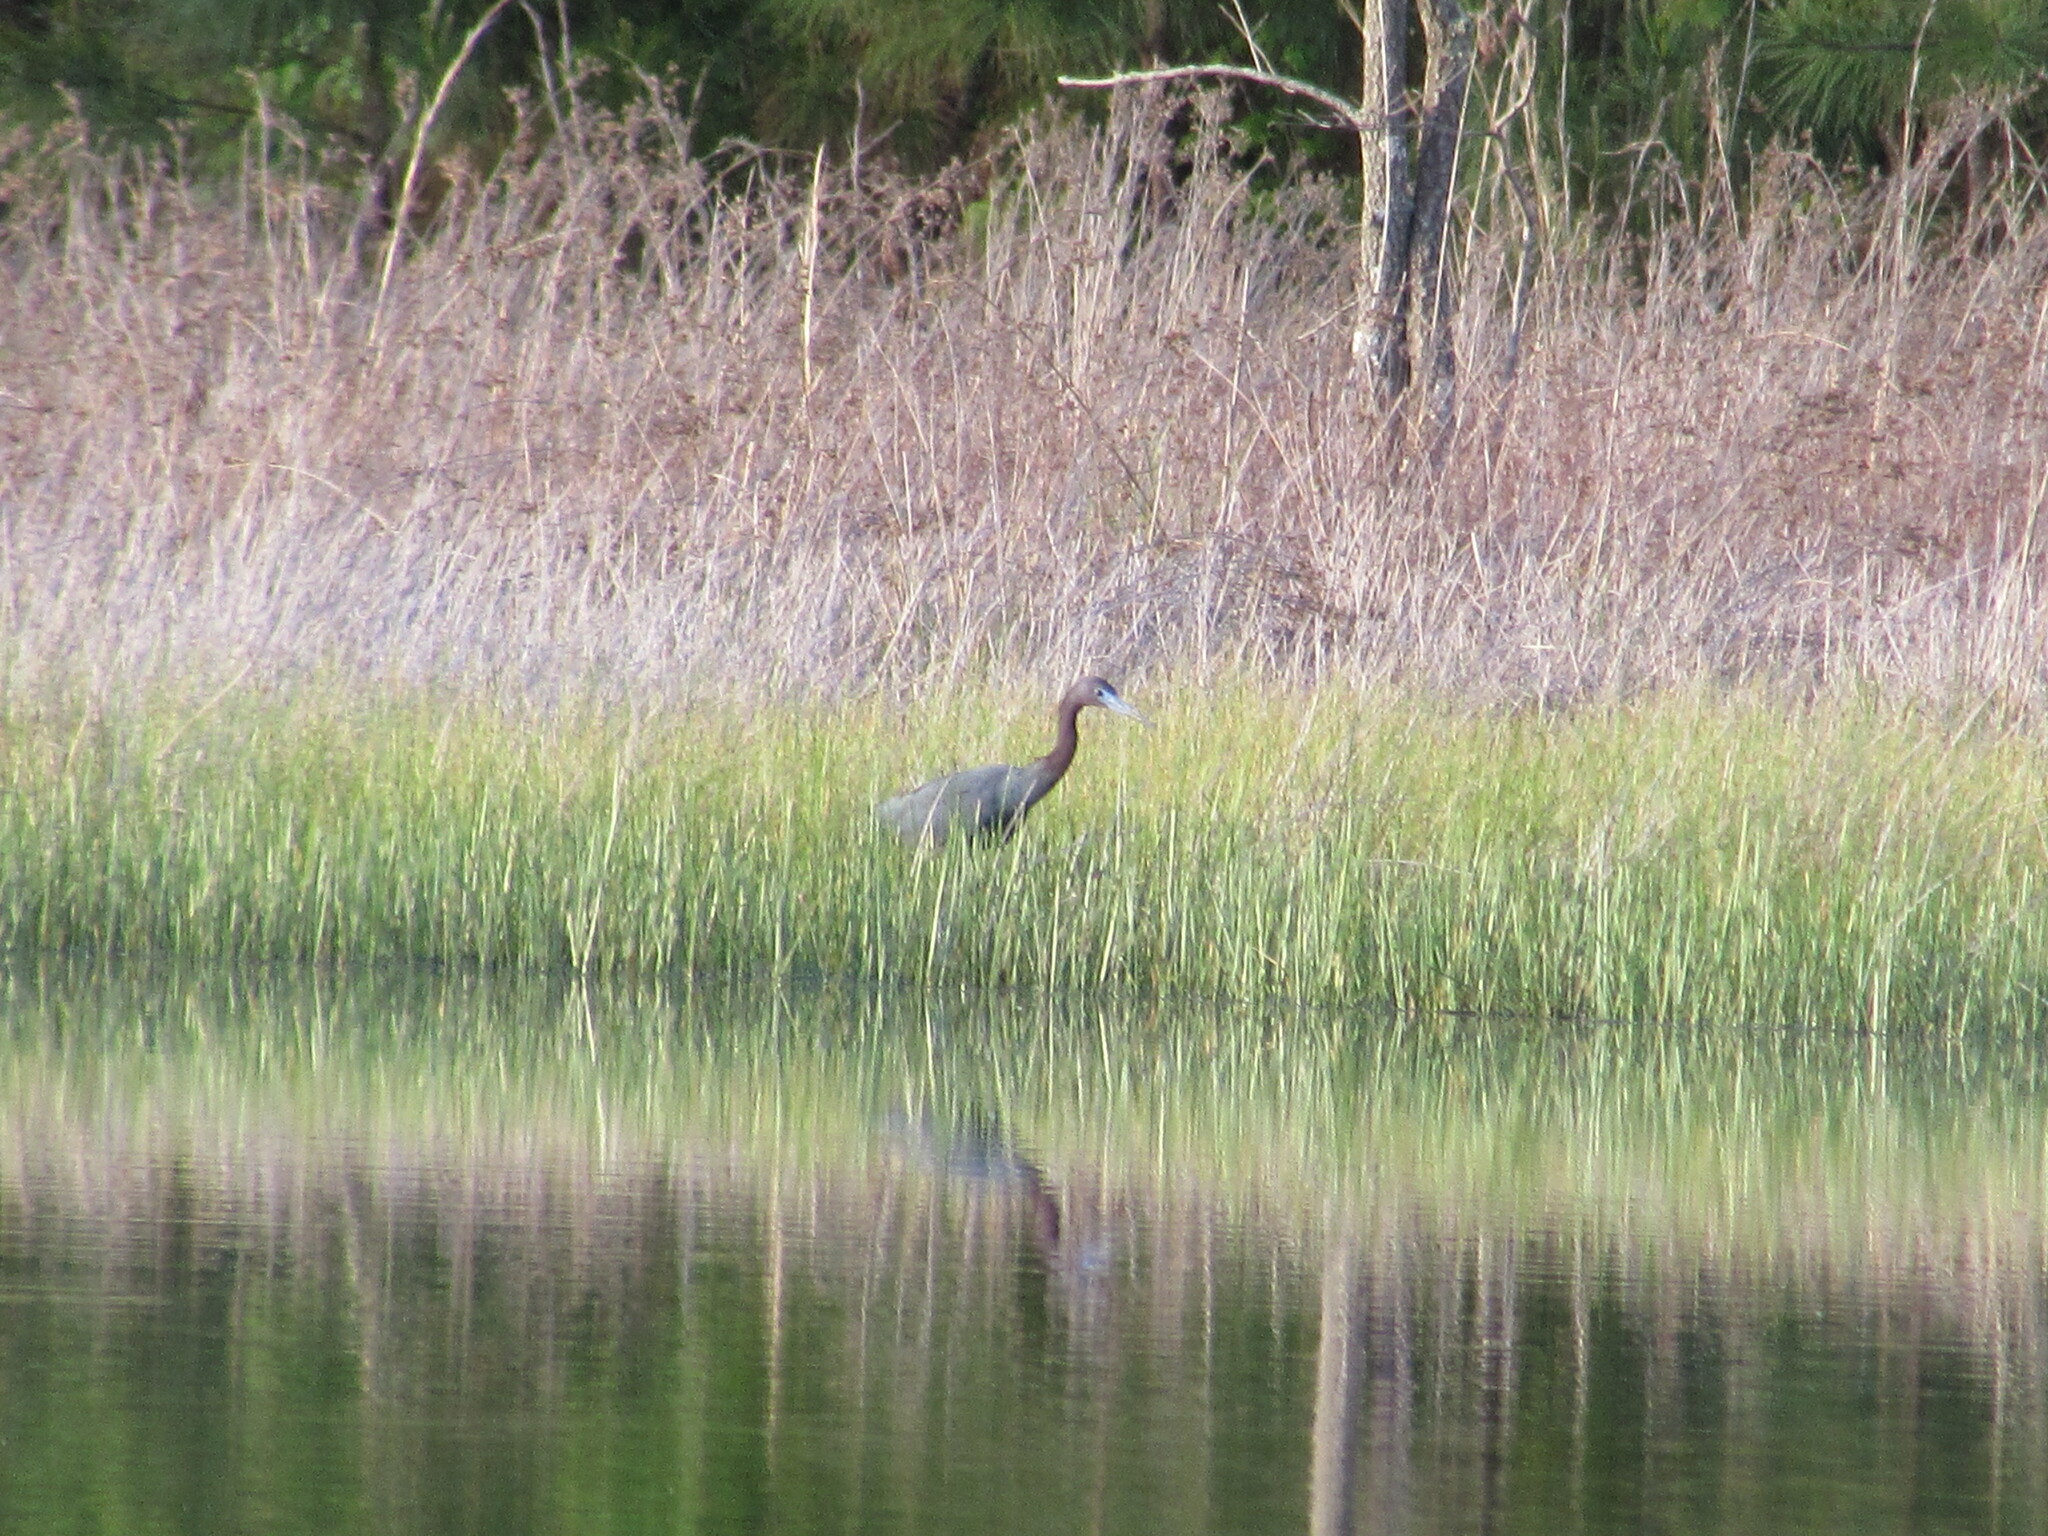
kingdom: Animalia
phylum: Chordata
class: Aves
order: Pelecaniformes
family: Ardeidae
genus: Egretta
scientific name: Egretta caerulea
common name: Little blue heron
